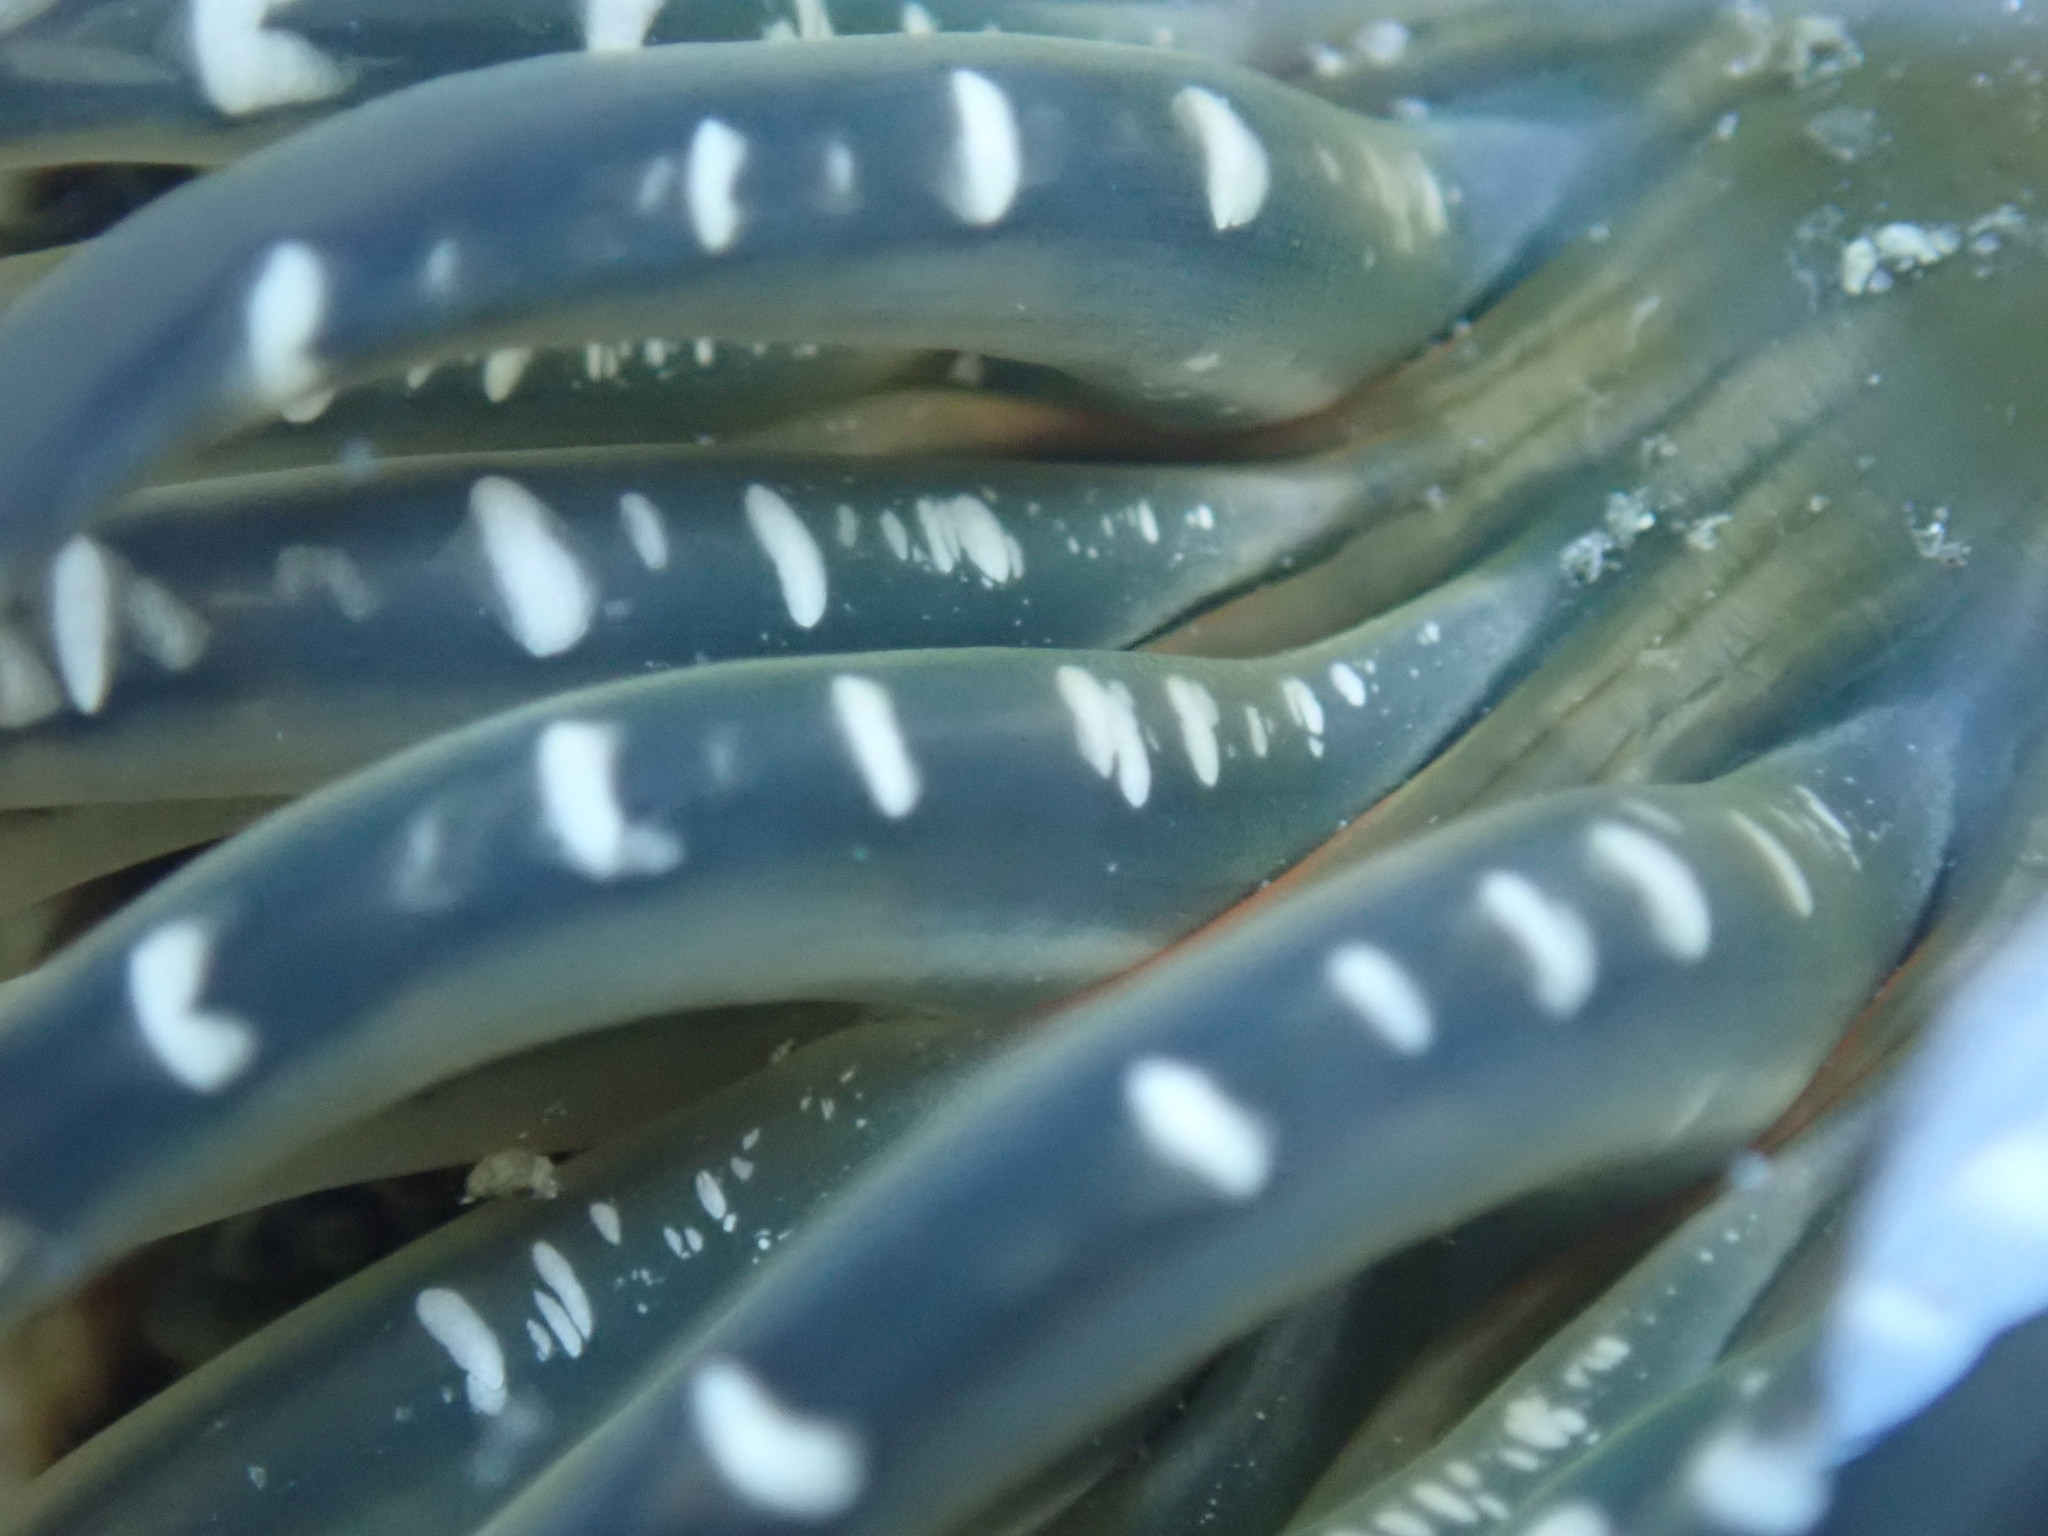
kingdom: Animalia
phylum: Cnidaria
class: Anthozoa
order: Actiniaria
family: Actiniidae
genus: Anthopleura
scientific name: Anthopleura artemisia
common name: Buried sea anemone
